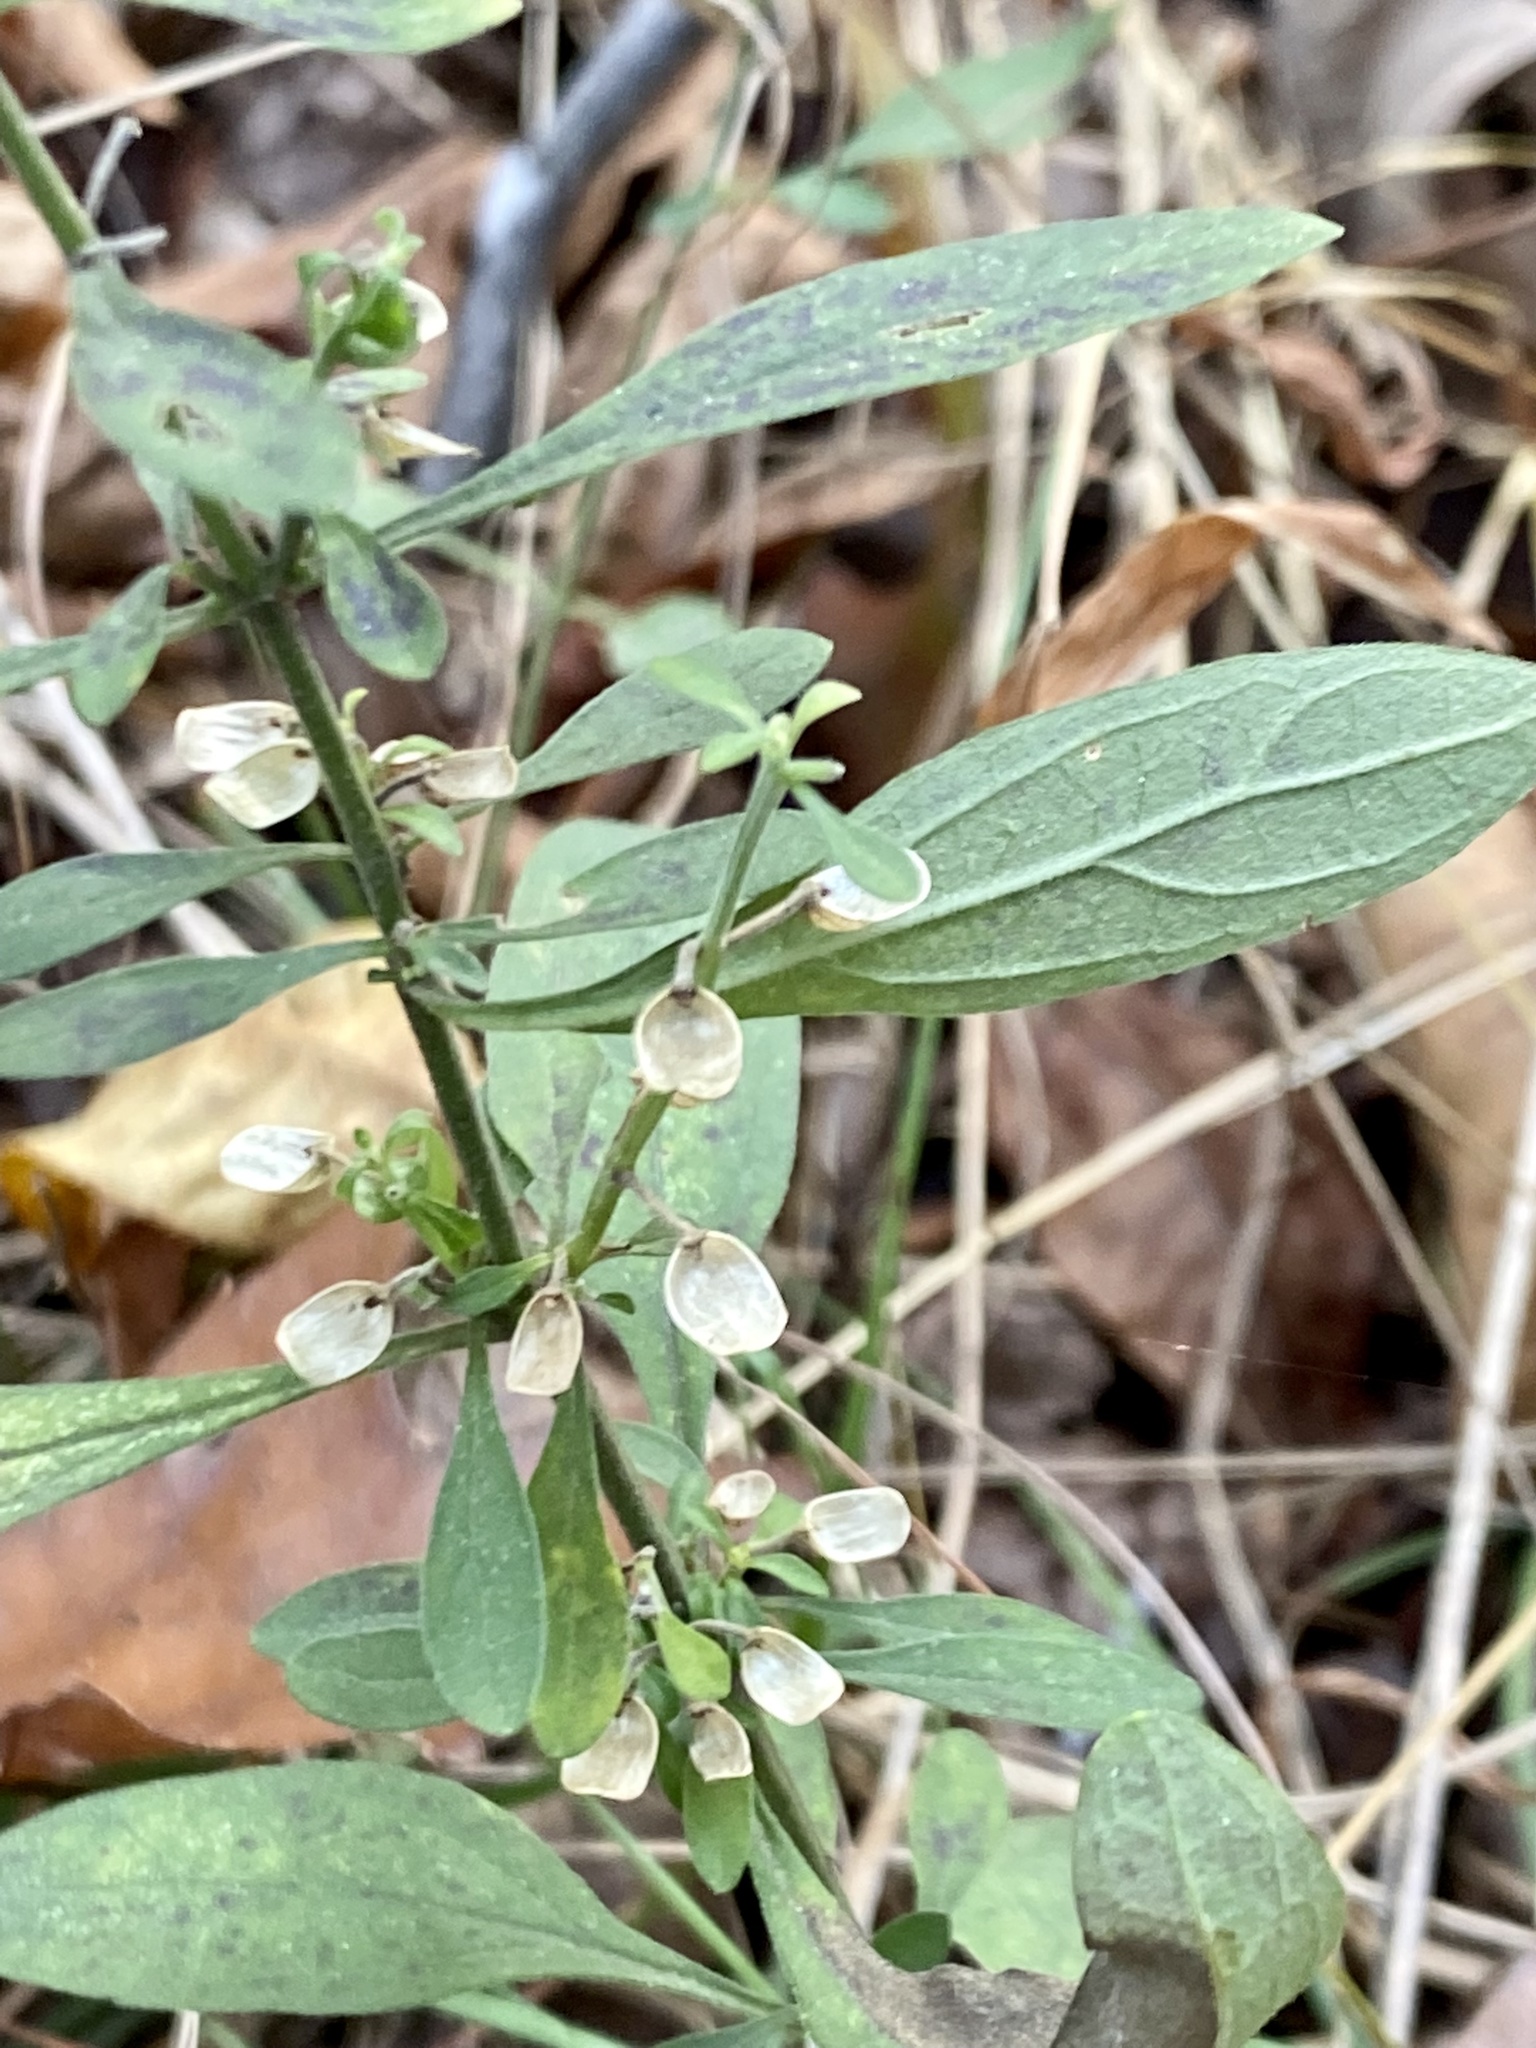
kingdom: Plantae
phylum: Tracheophyta
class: Magnoliopsida
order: Lamiales
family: Lamiaceae
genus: Scutellaria
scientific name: Scutellaria integrifolia
